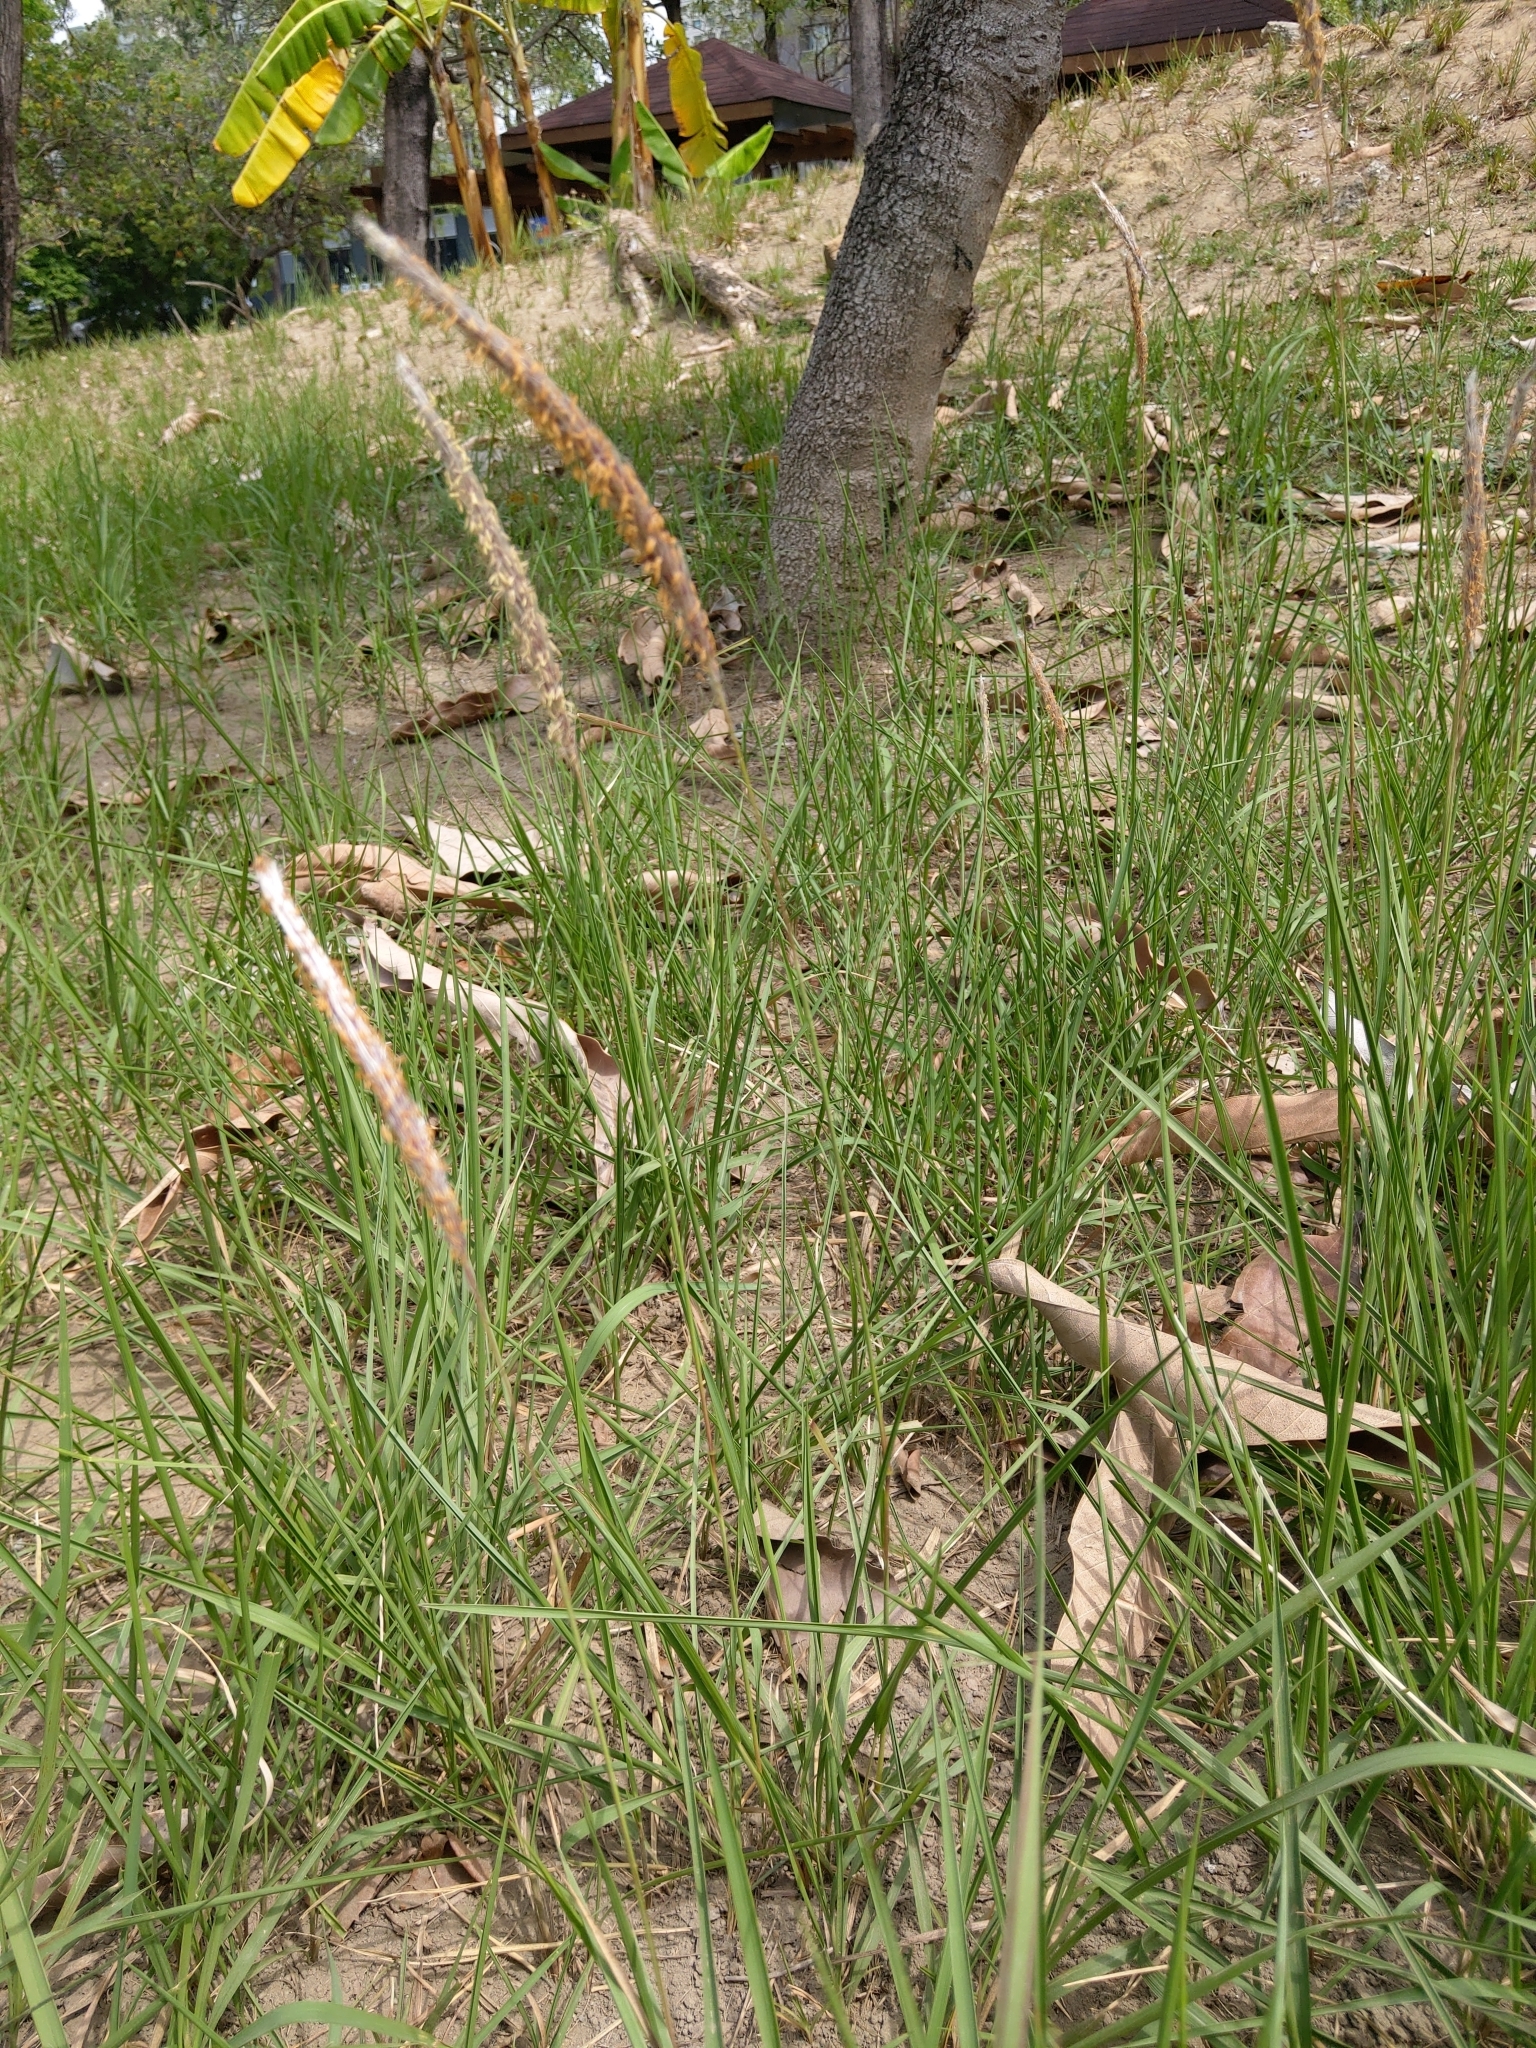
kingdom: Plantae
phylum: Tracheophyta
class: Liliopsida
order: Poales
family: Poaceae
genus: Imperata
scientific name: Imperata cylindrica
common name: Cogongrass
